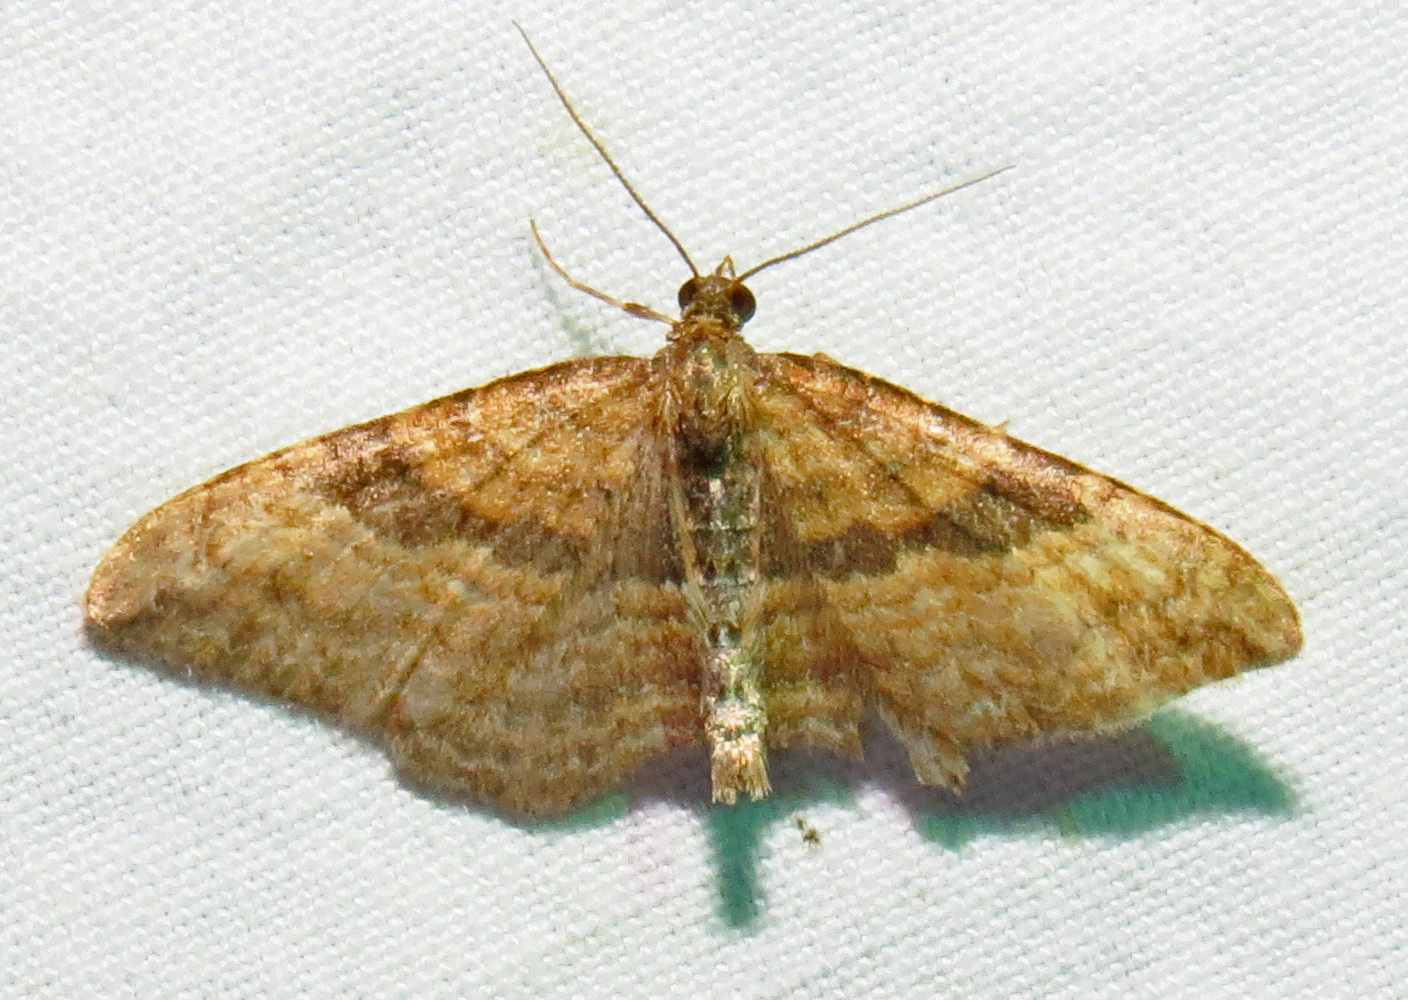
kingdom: Animalia
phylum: Arthropoda
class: Insecta
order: Lepidoptera
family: Geometridae
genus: Orthonama
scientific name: Orthonama obstipata
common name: The gem
